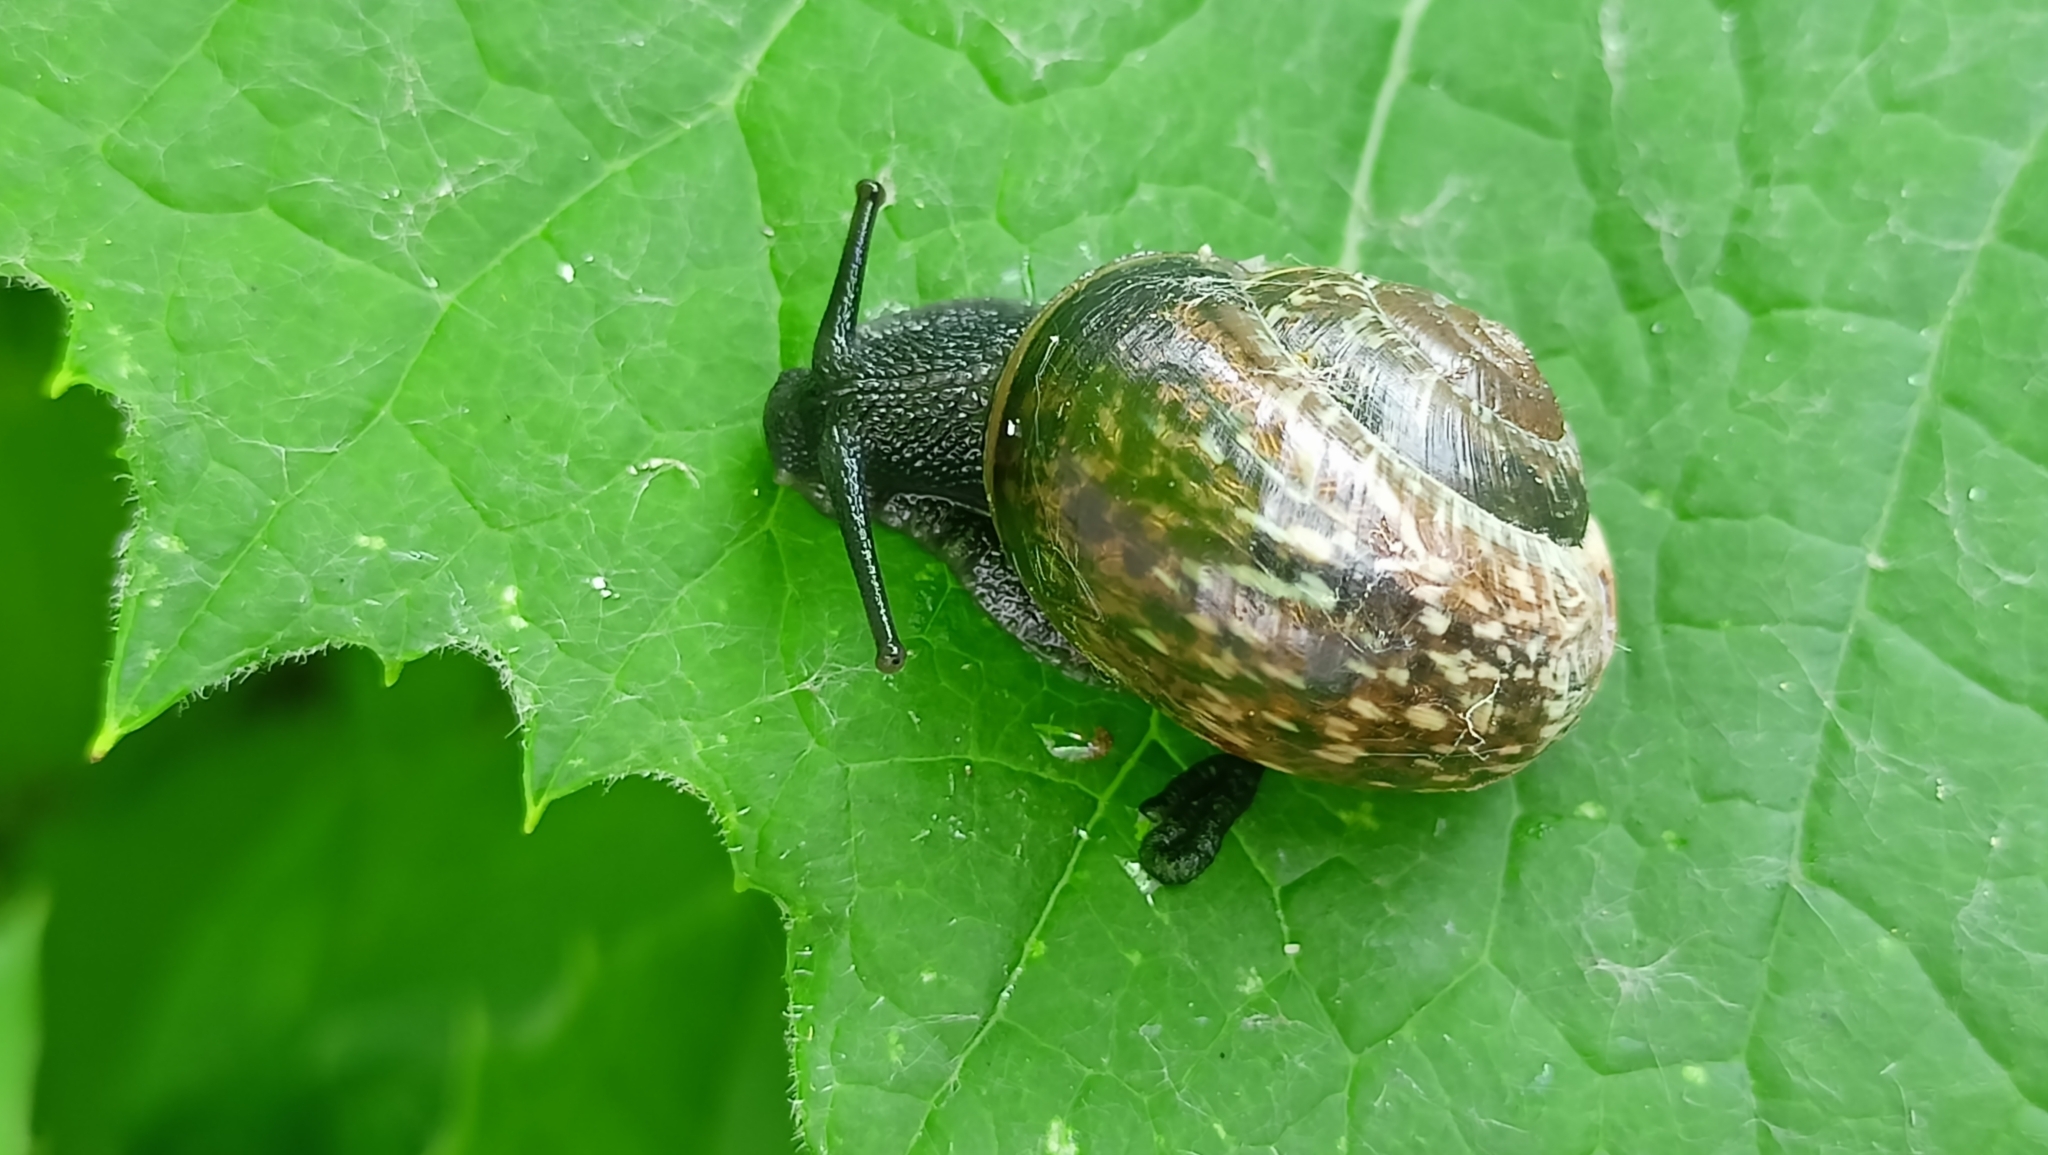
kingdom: Animalia
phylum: Mollusca
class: Gastropoda
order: Stylommatophora
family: Helicidae
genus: Arianta
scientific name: Arianta arbustorum
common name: Copse snail
